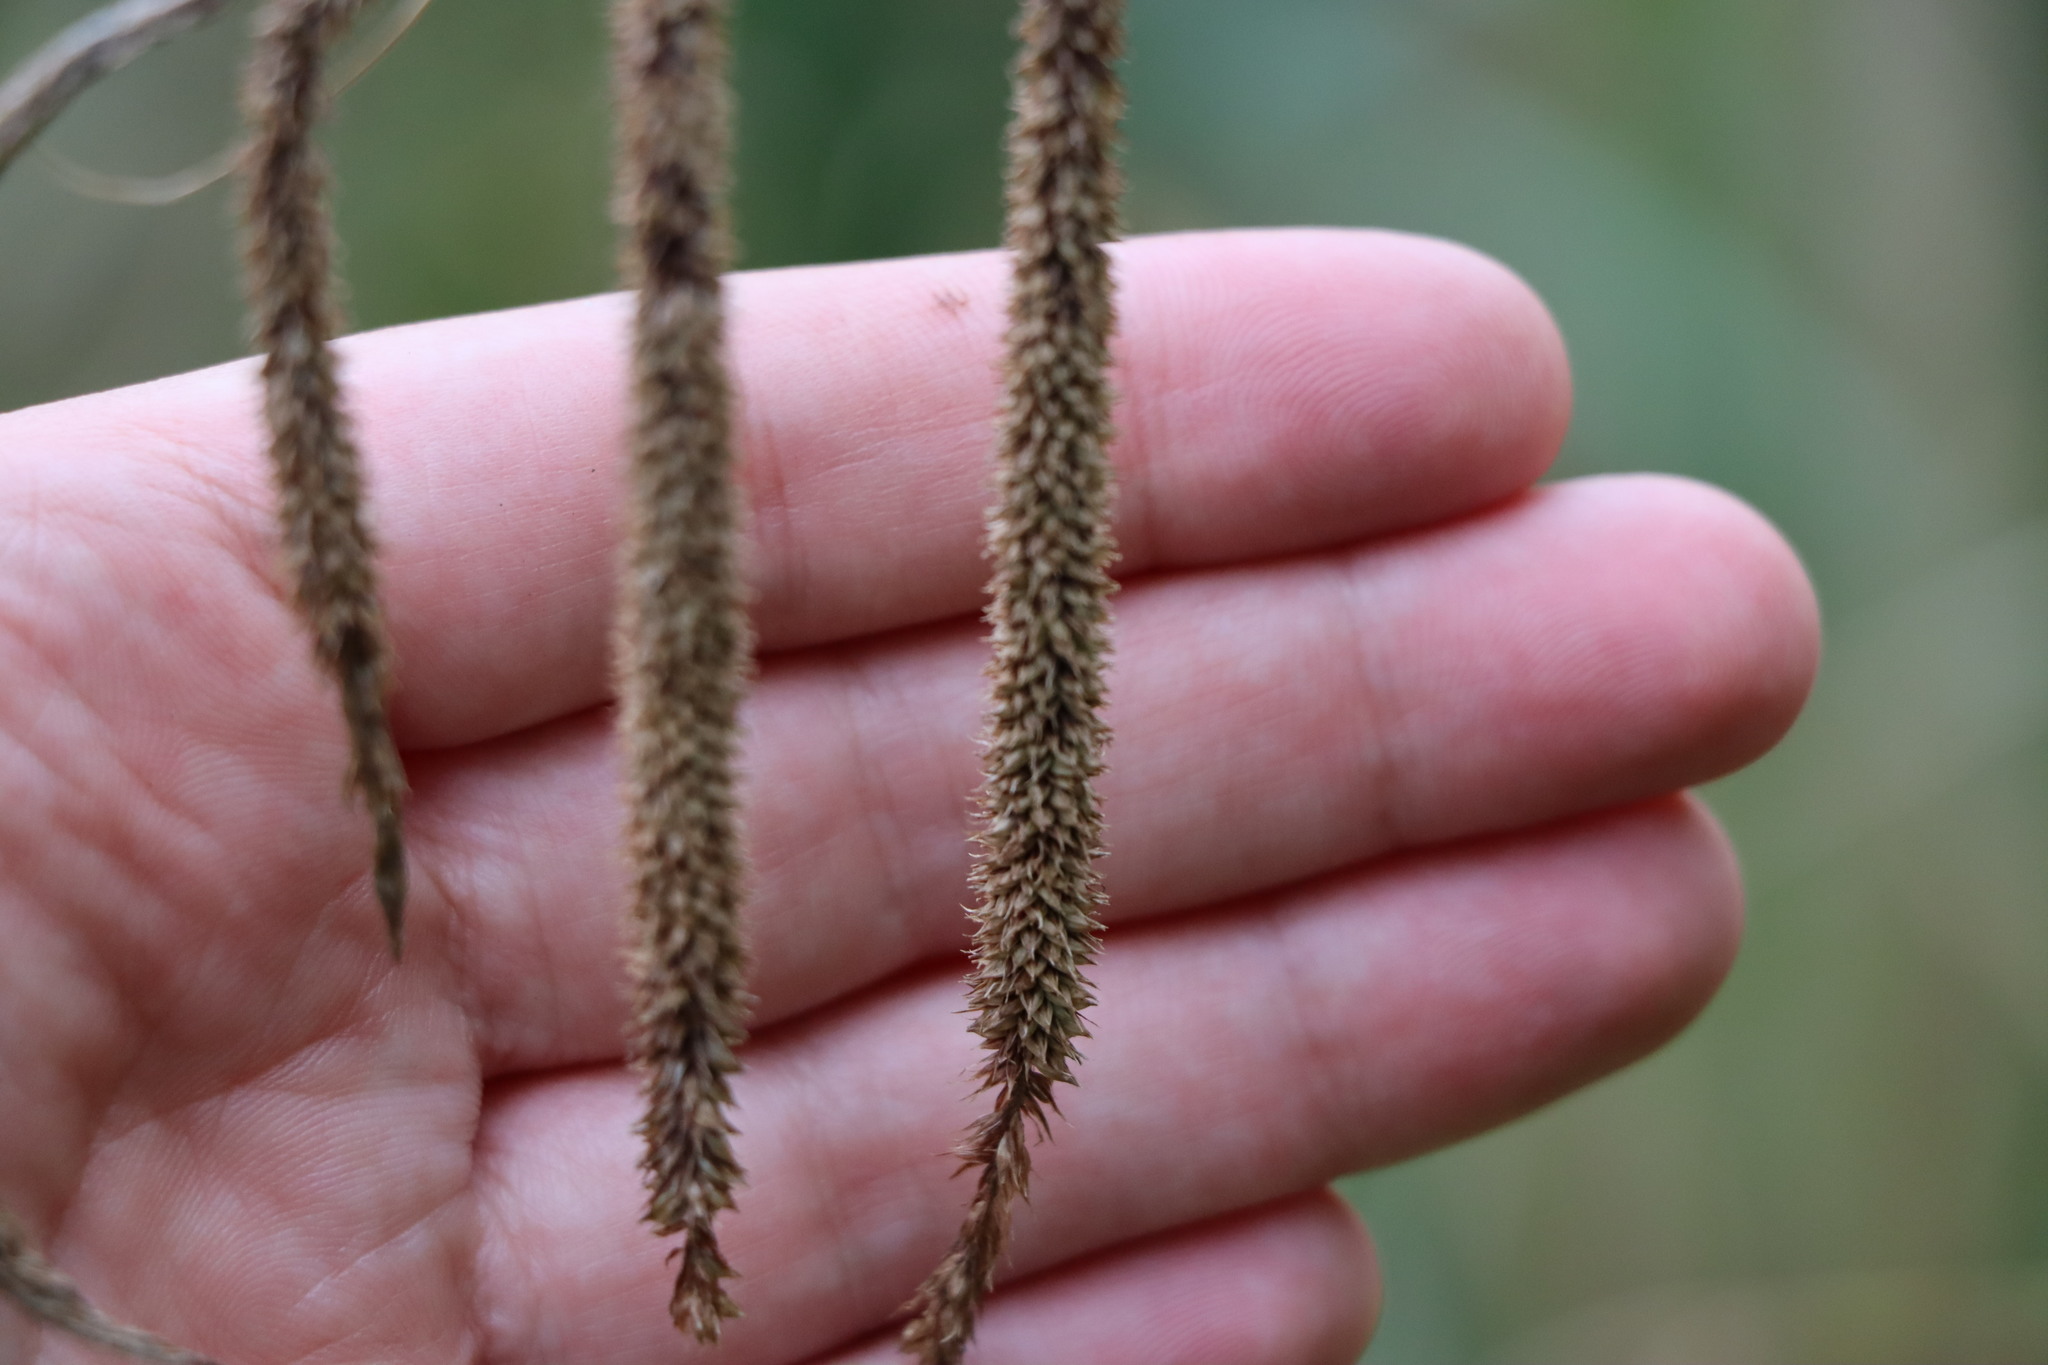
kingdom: Plantae
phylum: Tracheophyta
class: Liliopsida
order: Poales
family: Cyperaceae
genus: Carex
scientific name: Carex pendula
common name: Pendulous sedge
